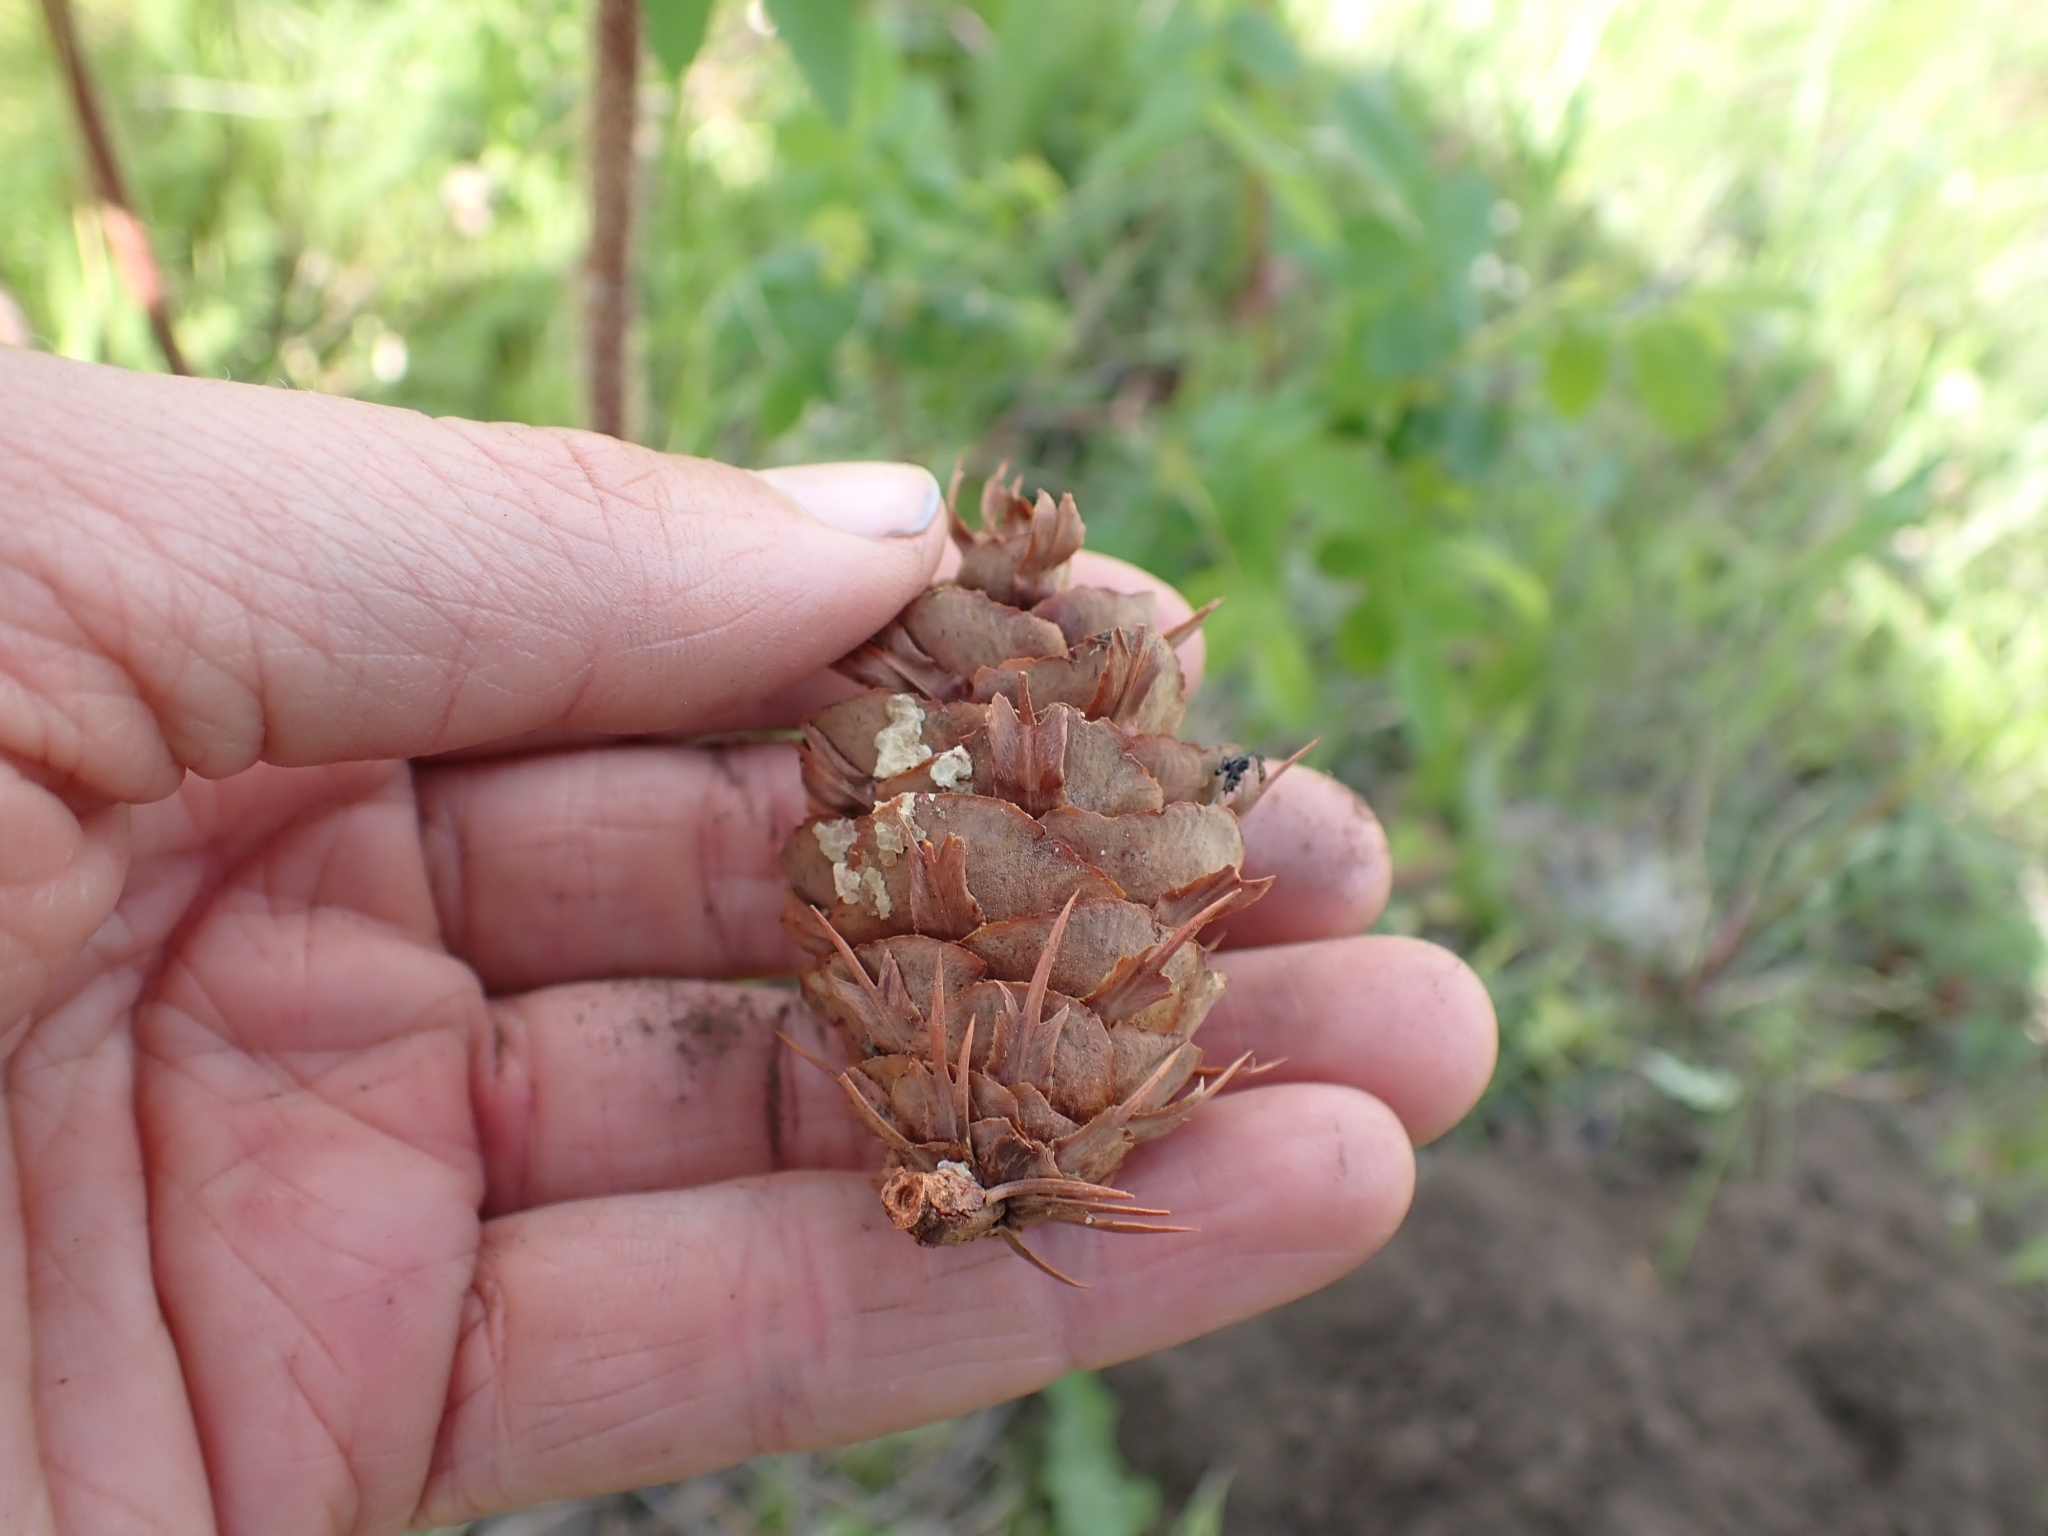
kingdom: Plantae
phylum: Tracheophyta
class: Pinopsida
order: Pinales
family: Pinaceae
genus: Pseudotsuga
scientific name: Pseudotsuga menziesii
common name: Douglas fir
